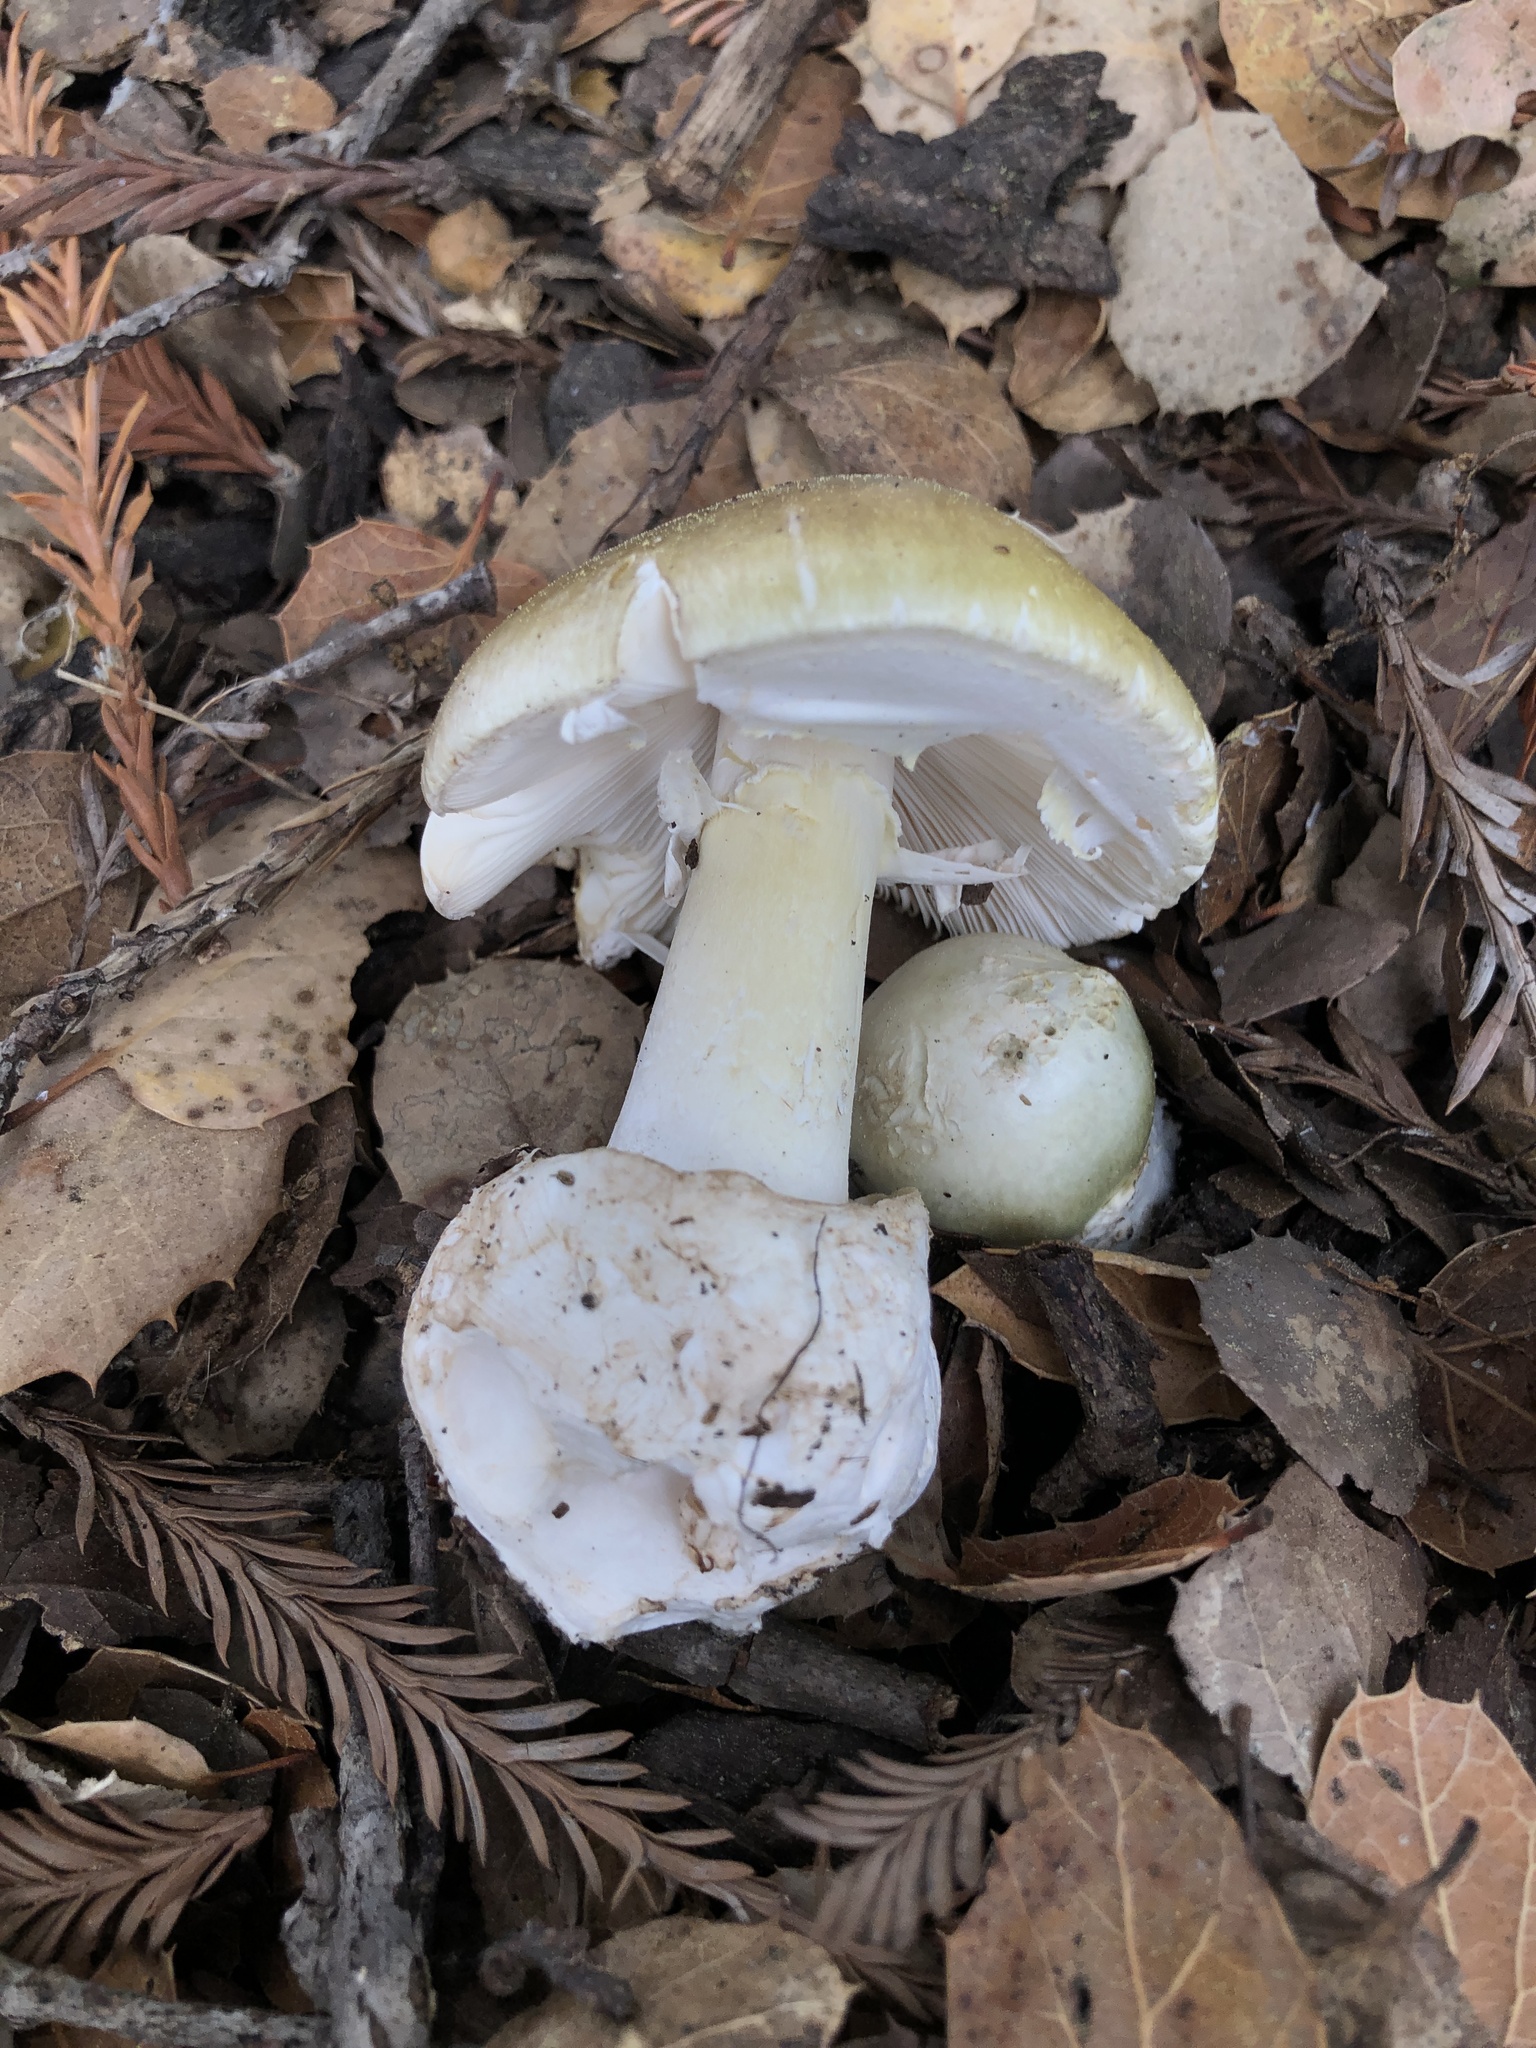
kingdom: Fungi
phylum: Basidiomycota
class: Agaricomycetes
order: Agaricales
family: Amanitaceae
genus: Amanita
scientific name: Amanita phalloides
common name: Death cap
